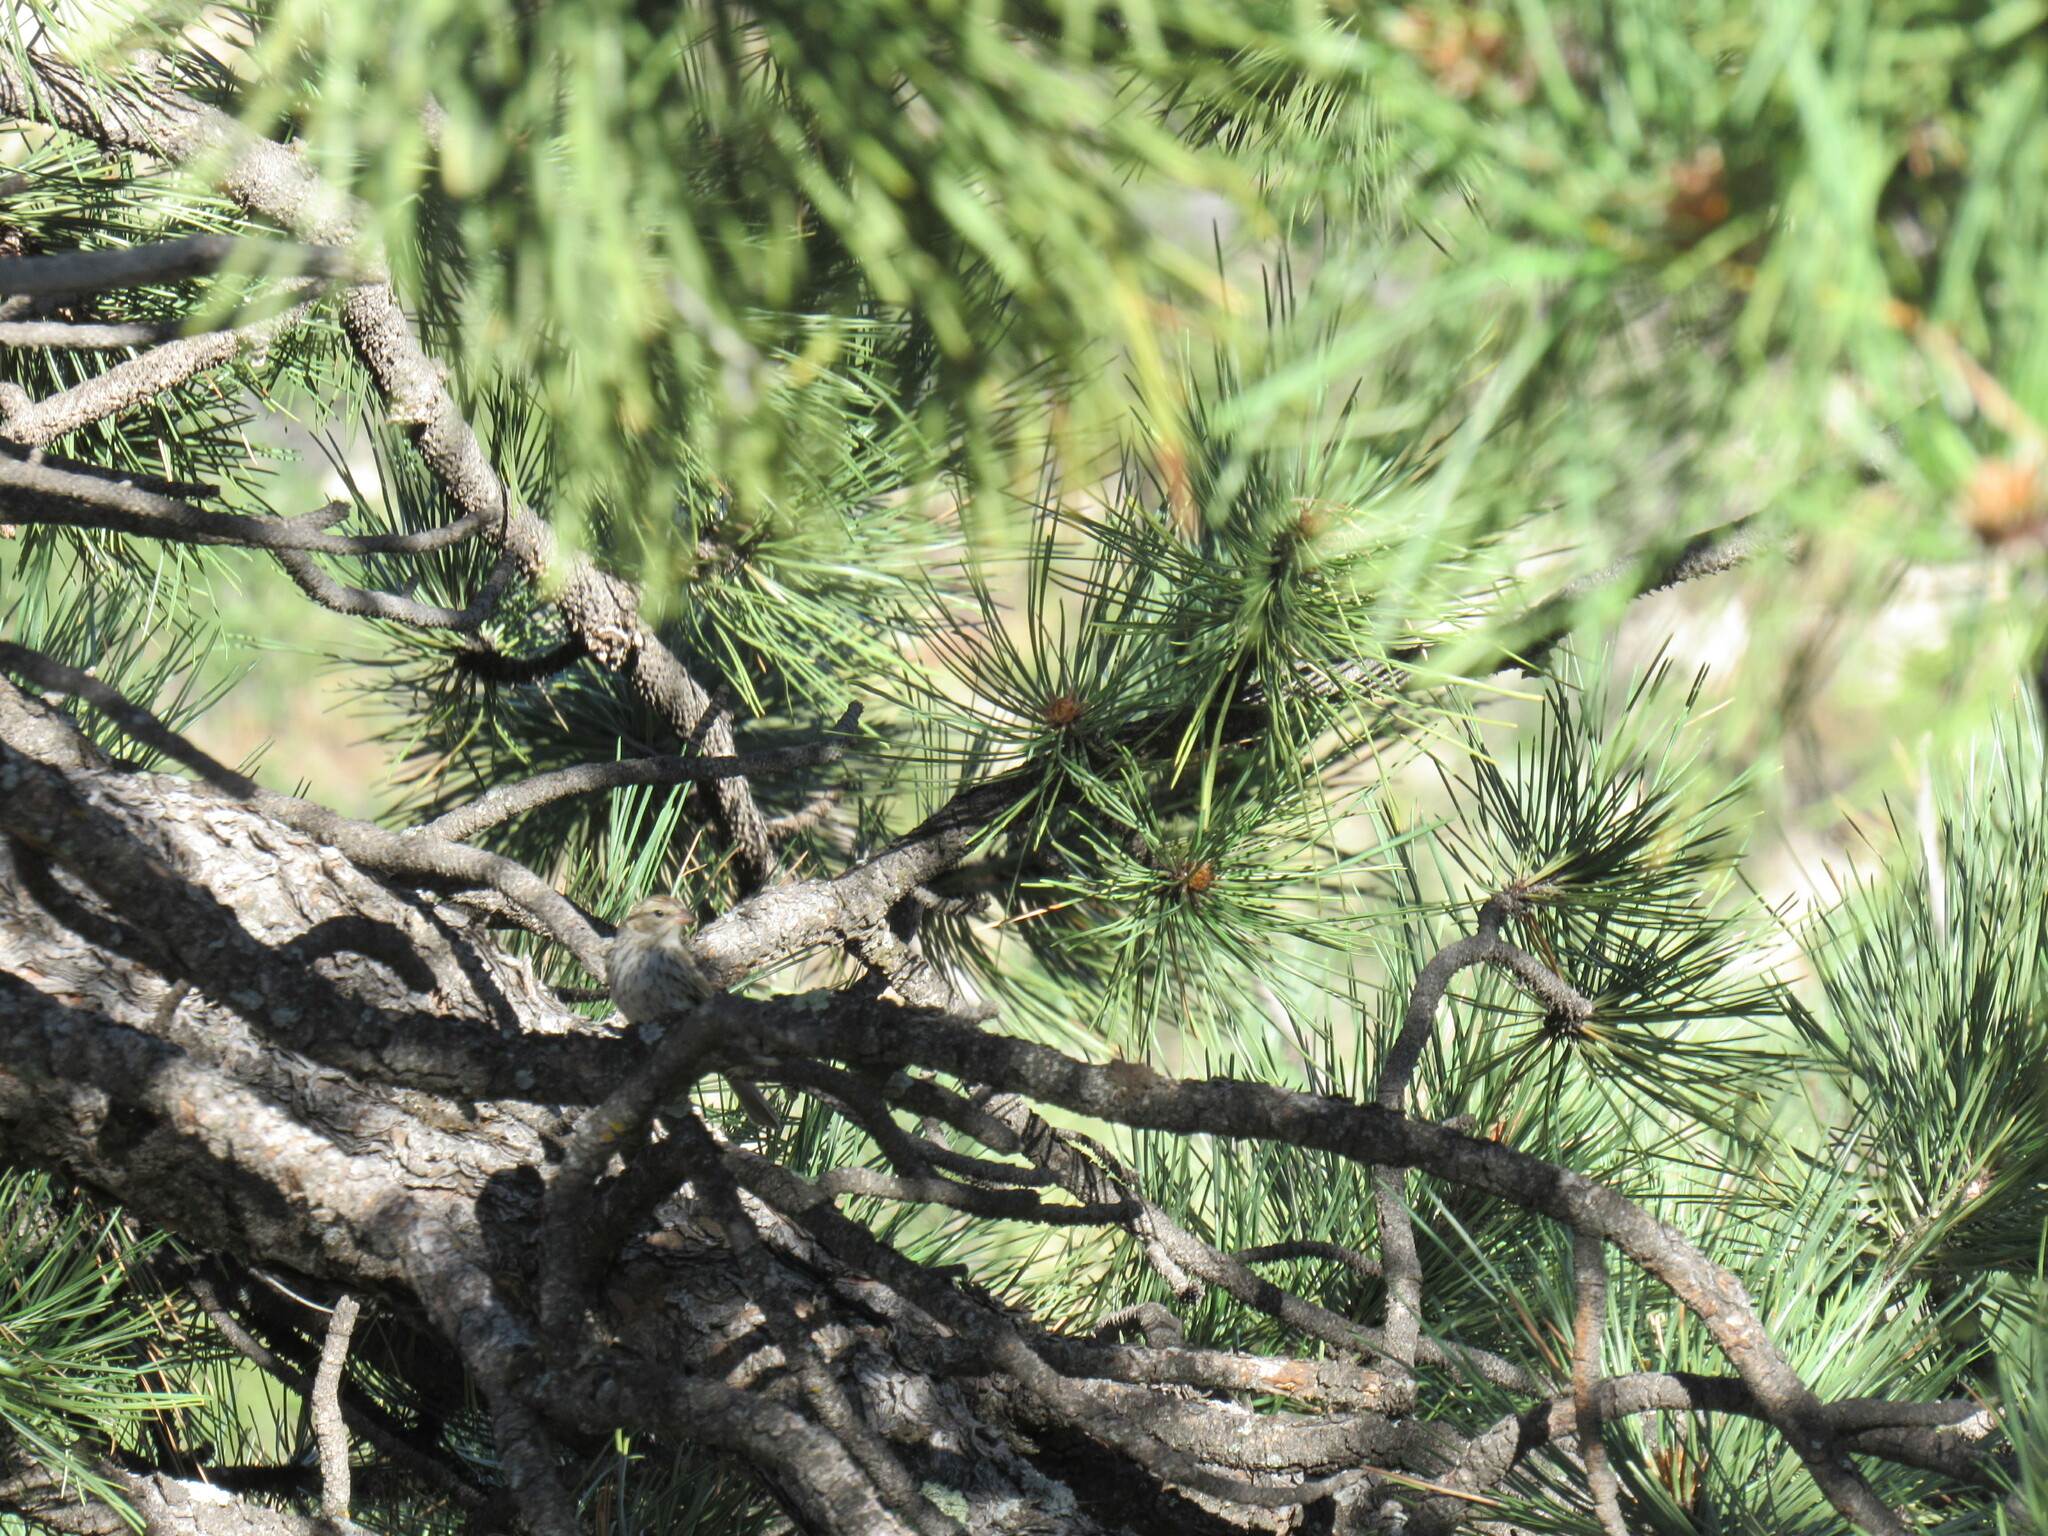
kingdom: Animalia
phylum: Chordata
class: Aves
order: Passeriformes
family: Passerellidae
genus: Spizella
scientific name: Spizella passerina
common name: Chipping sparrow
